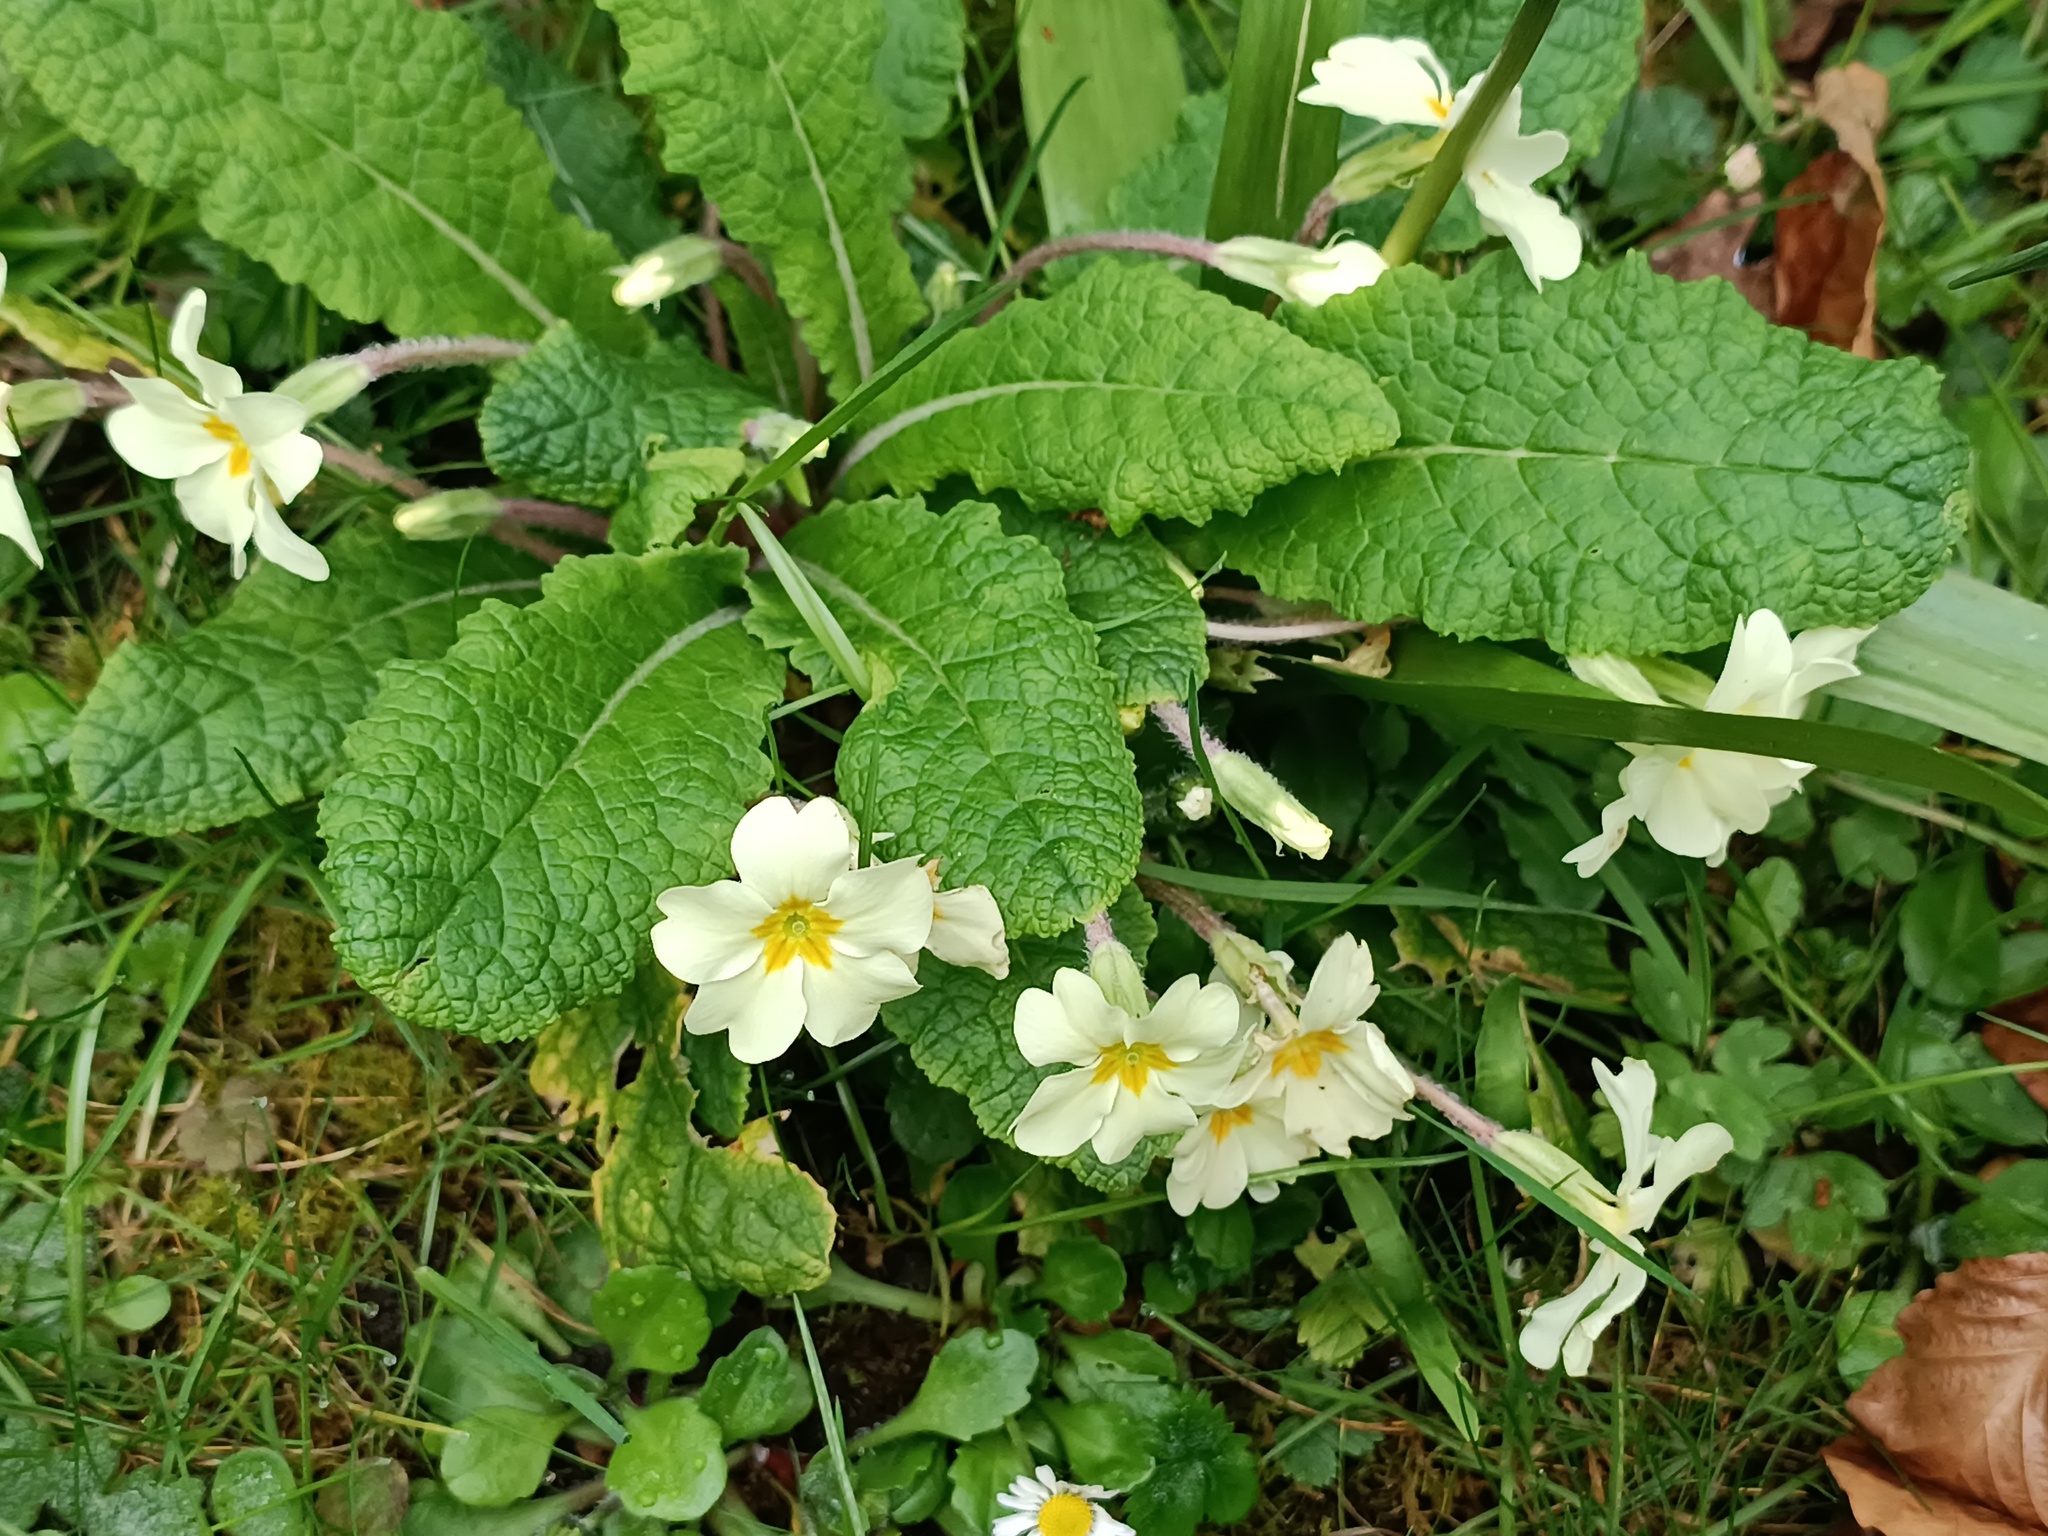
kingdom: Plantae
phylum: Tracheophyta
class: Magnoliopsida
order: Ericales
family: Primulaceae
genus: Primula
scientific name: Primula vulgaris
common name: Primrose
